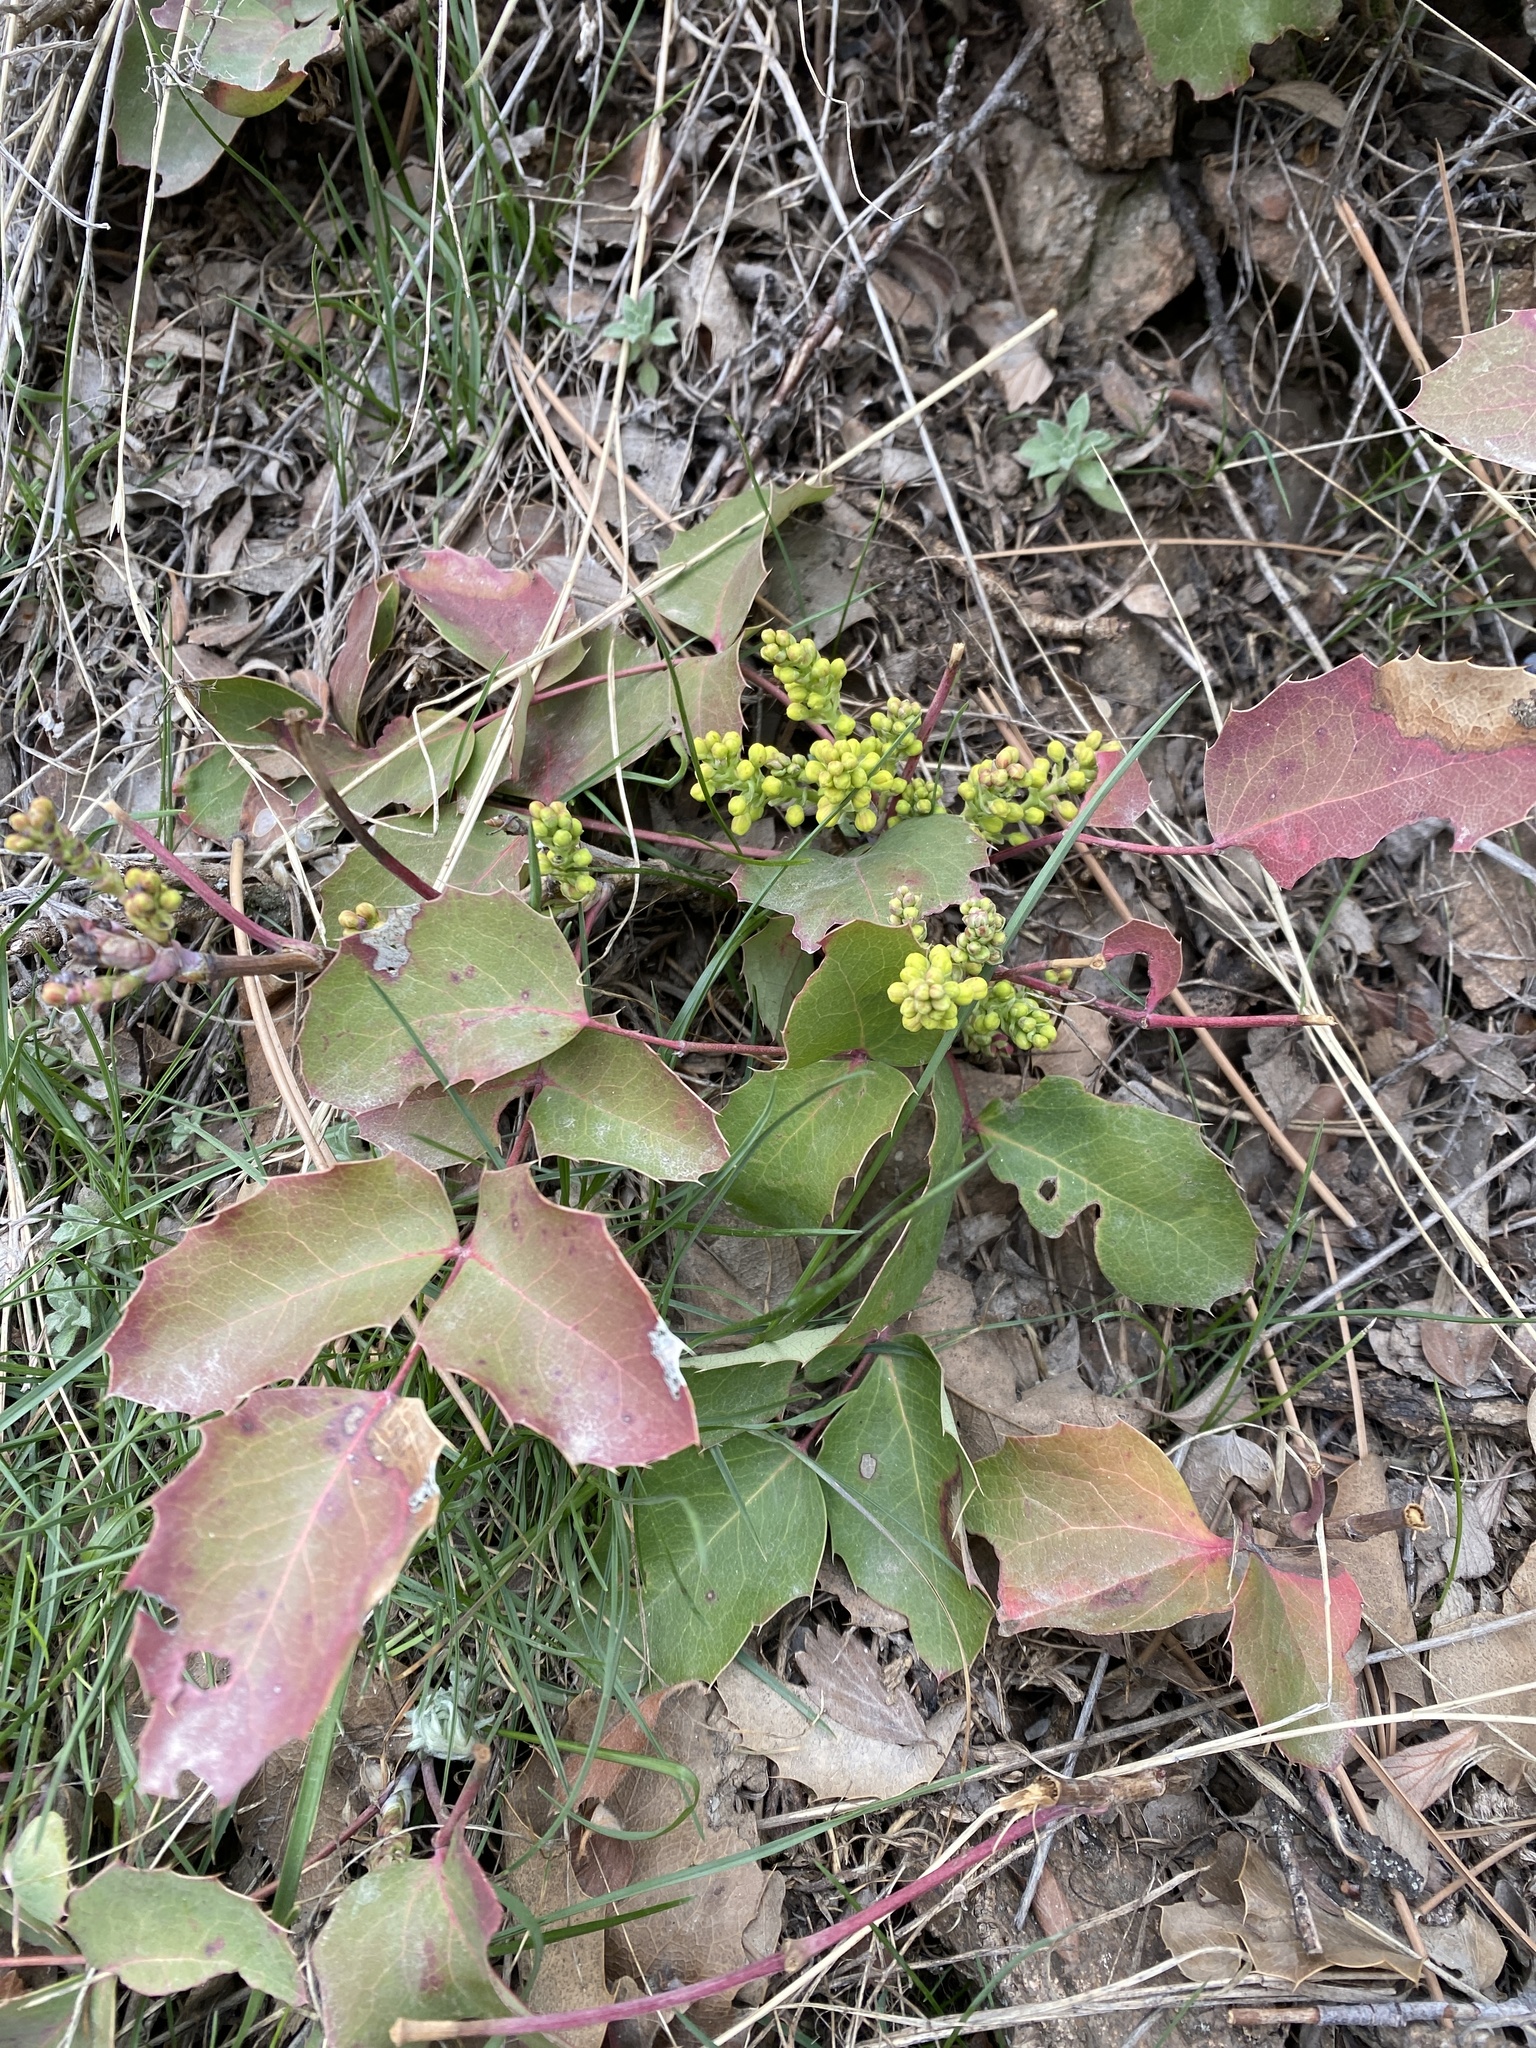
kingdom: Plantae
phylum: Tracheophyta
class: Magnoliopsida
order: Ranunculales
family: Berberidaceae
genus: Mahonia
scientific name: Mahonia repens
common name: Creeping oregon-grape
